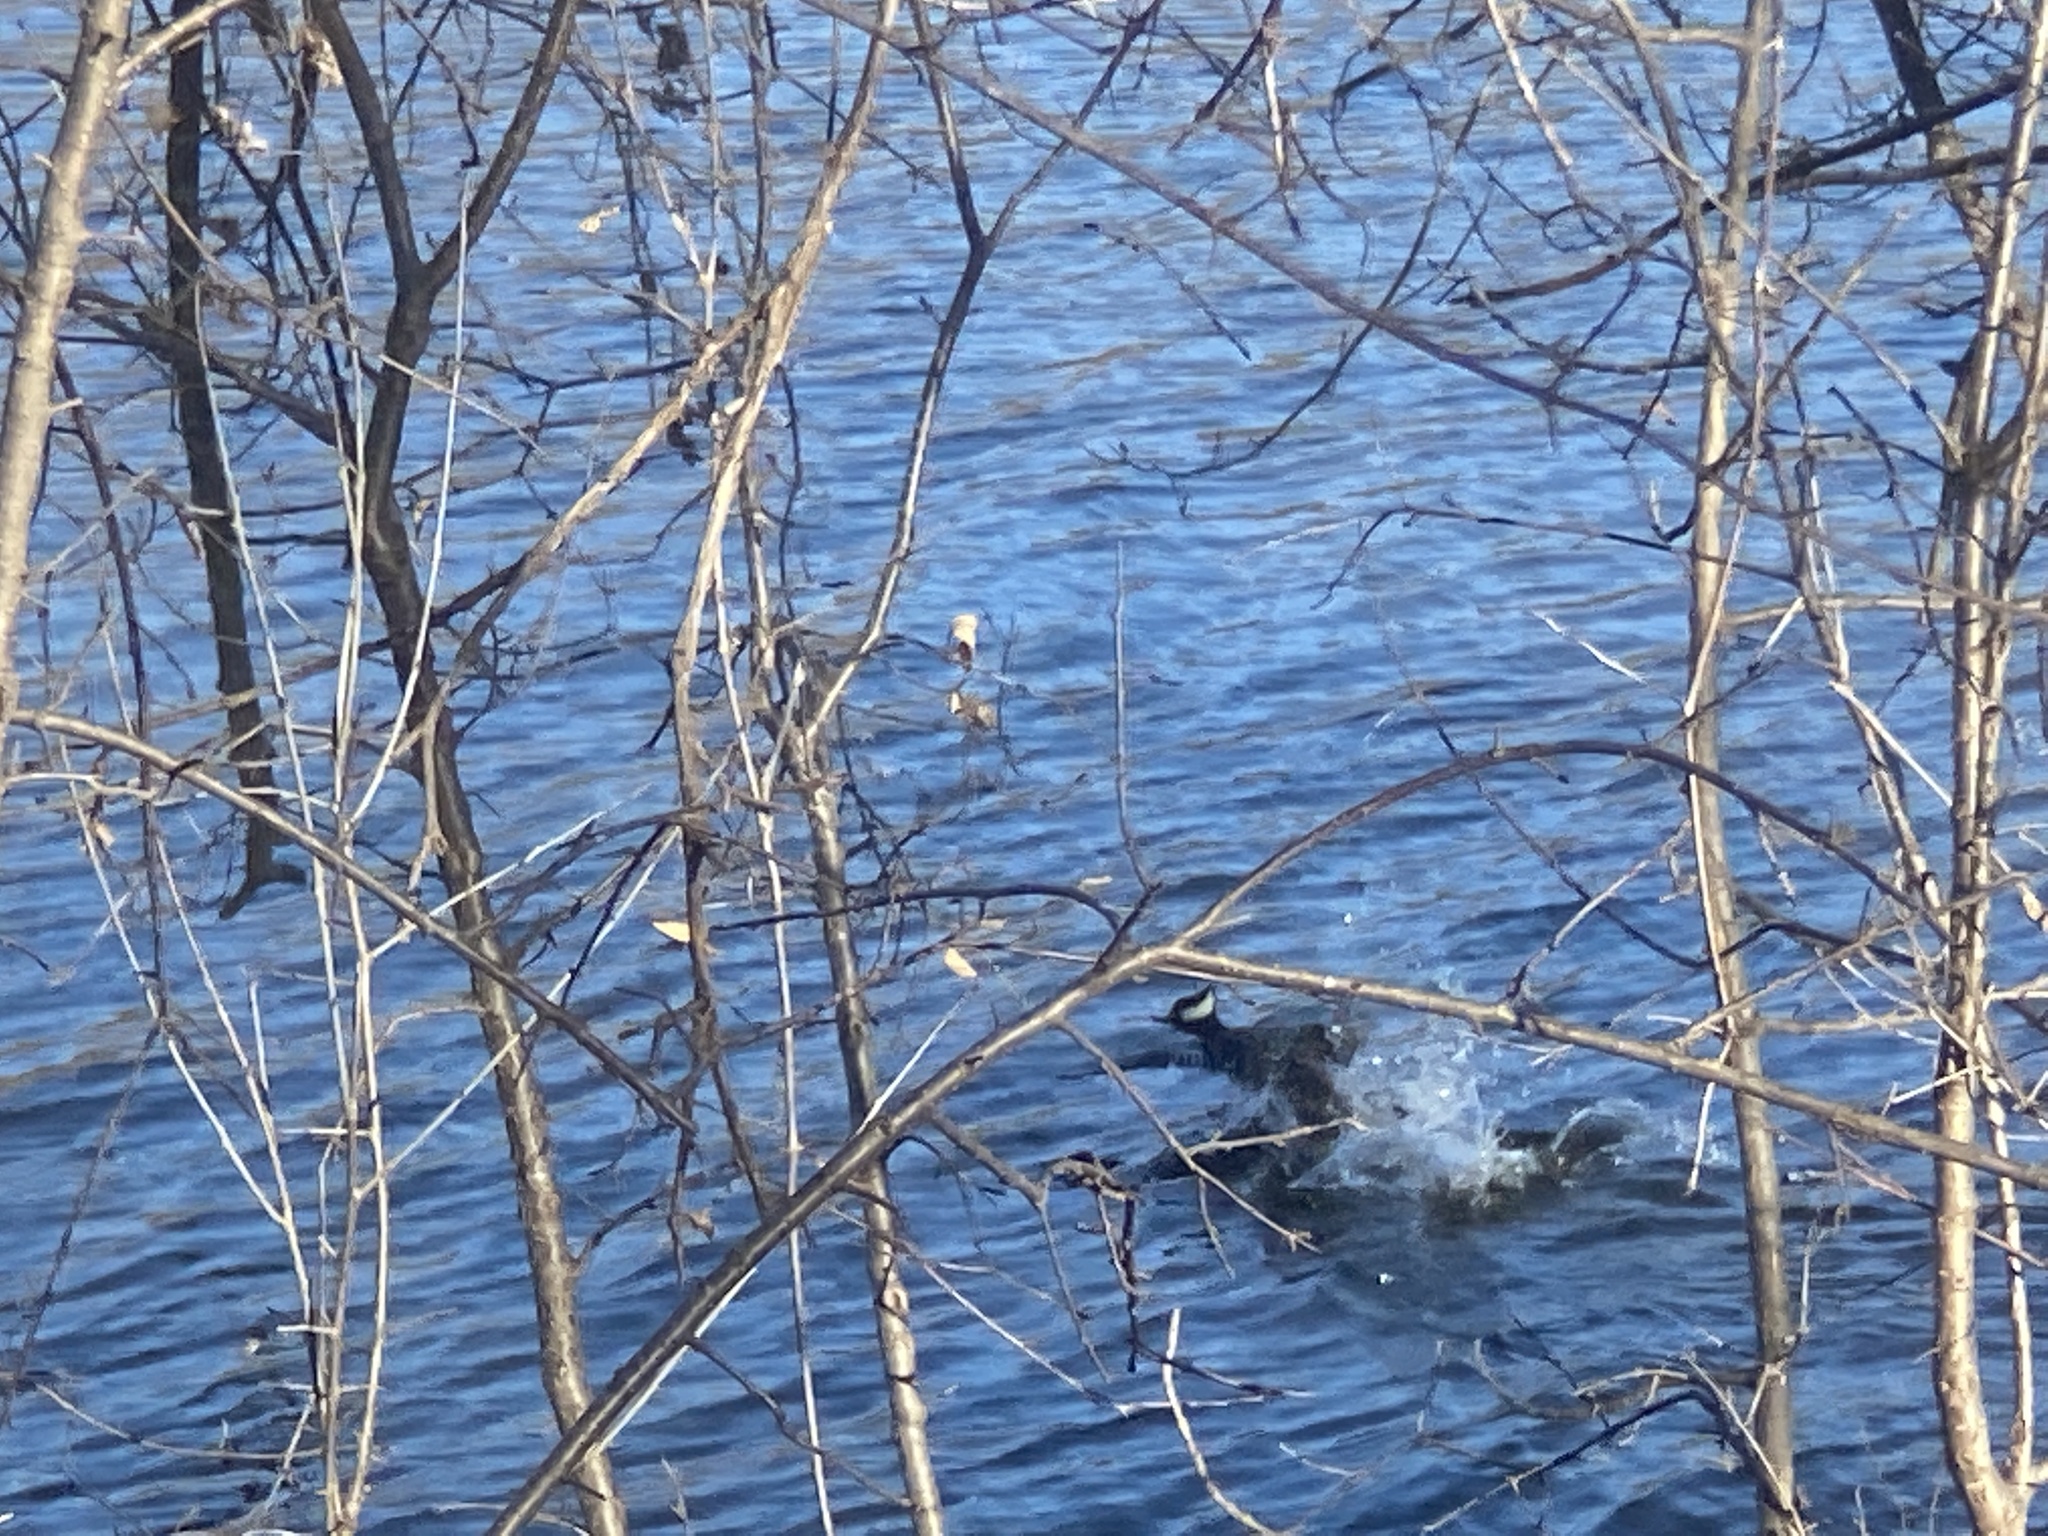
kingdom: Animalia
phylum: Chordata
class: Aves
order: Anseriformes
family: Anatidae
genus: Lophodytes
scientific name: Lophodytes cucullatus
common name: Hooded merganser
